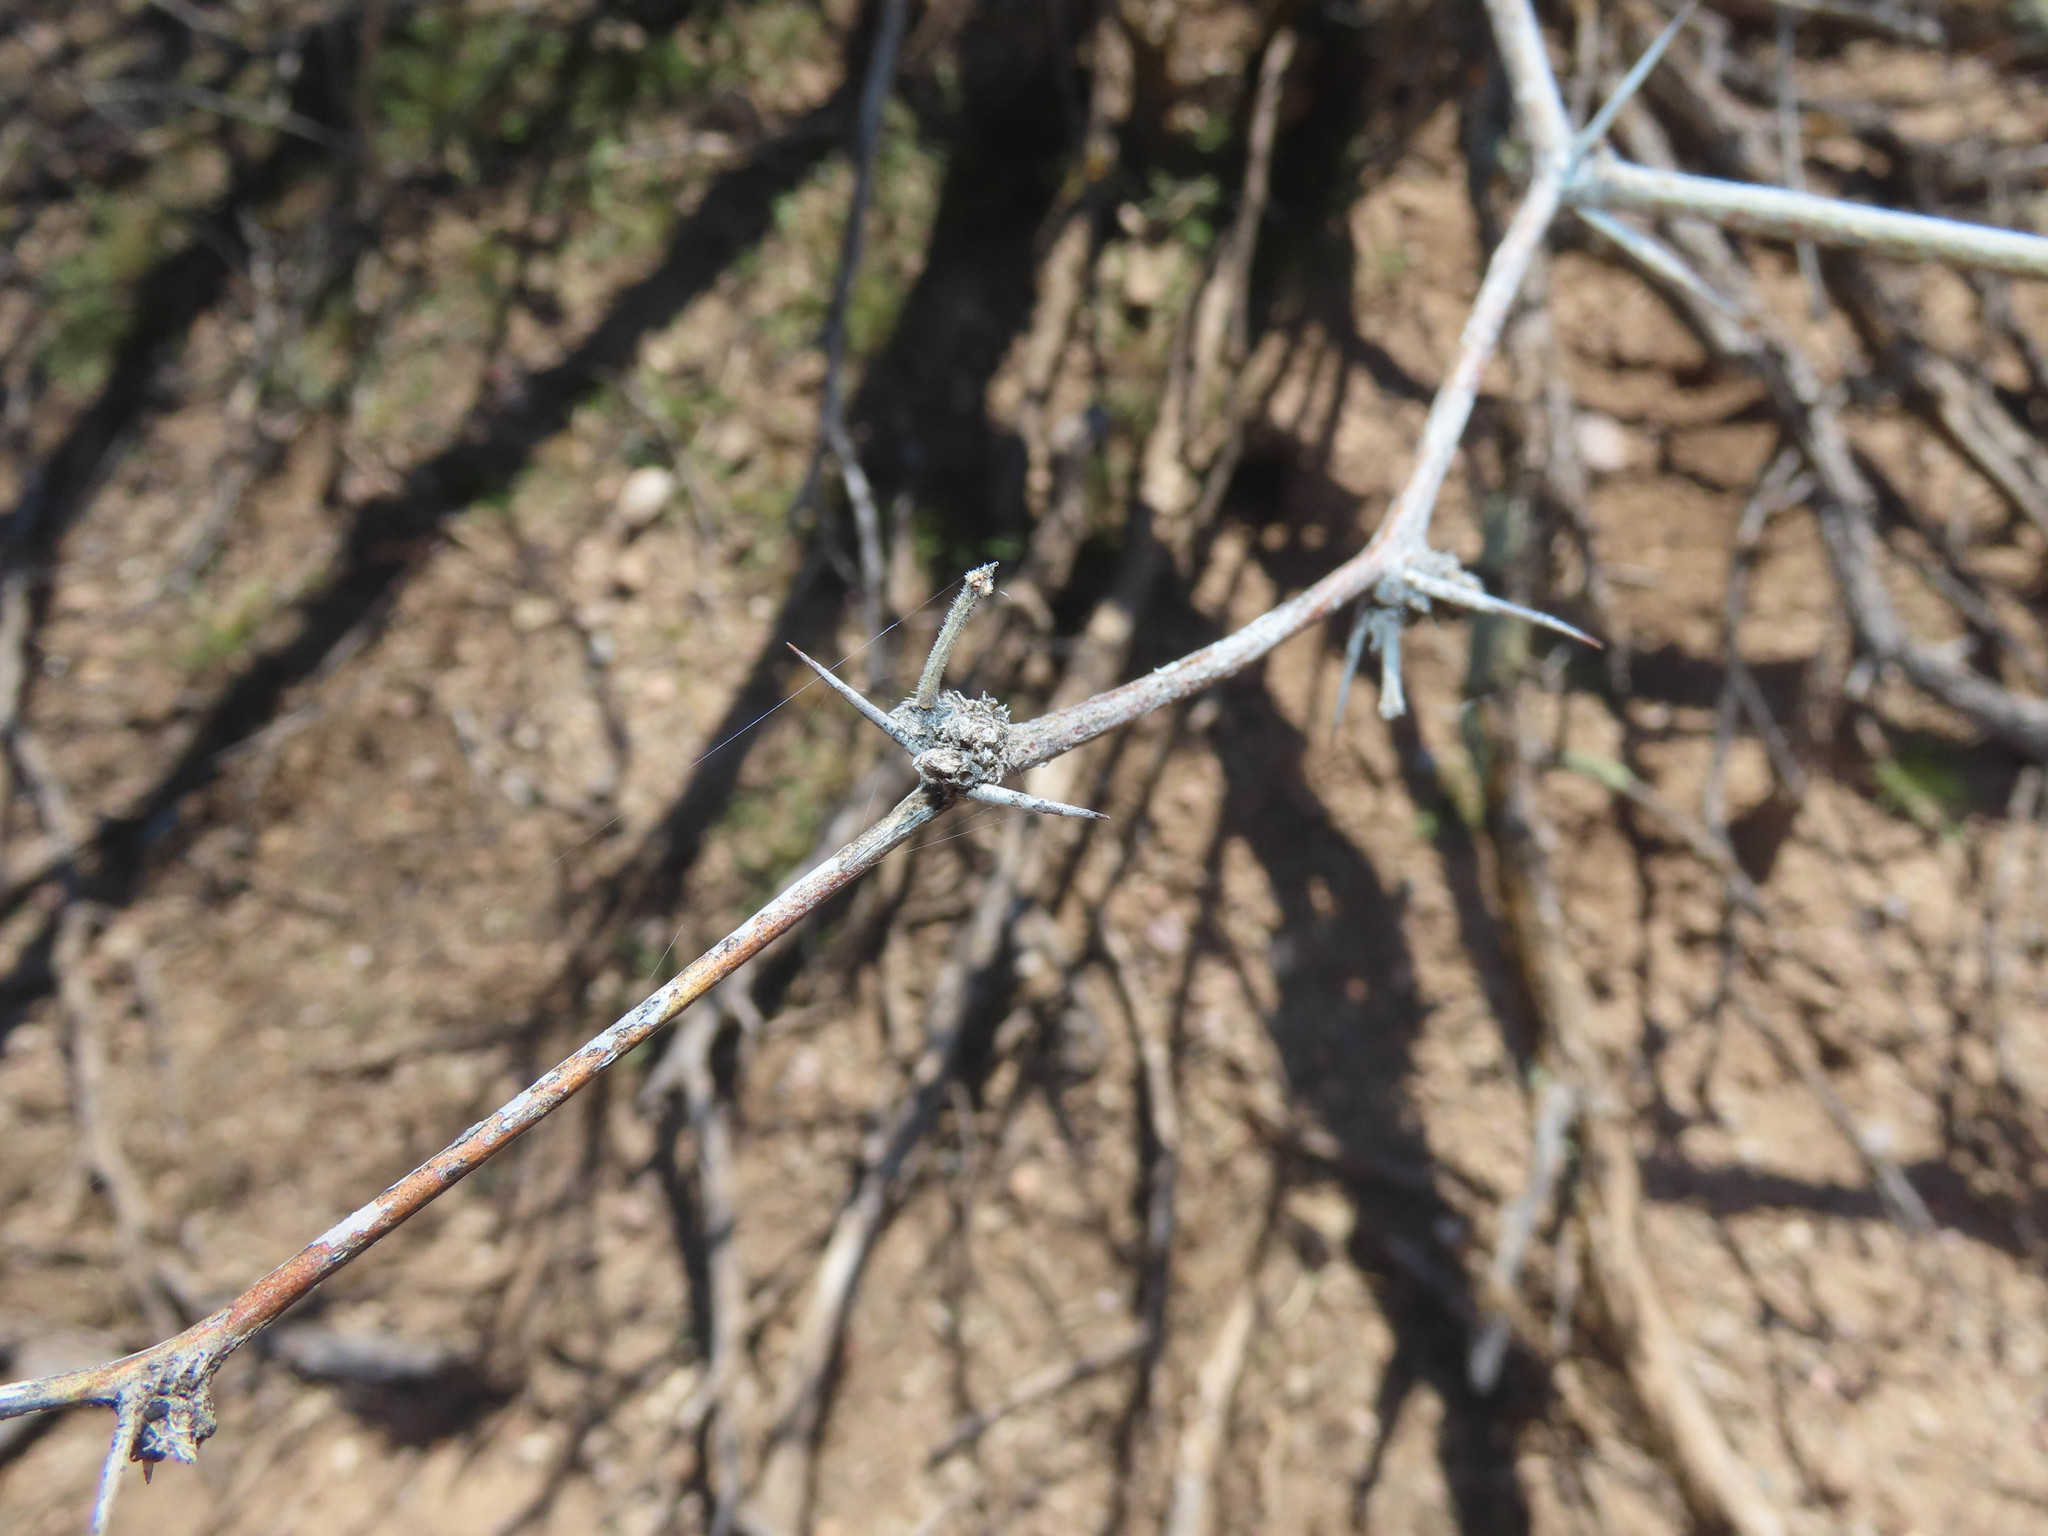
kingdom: Plantae
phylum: Tracheophyta
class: Magnoliopsida
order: Fabales
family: Fabaceae
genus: Prosopis
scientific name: Prosopis velutina
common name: Velvet mesquite
